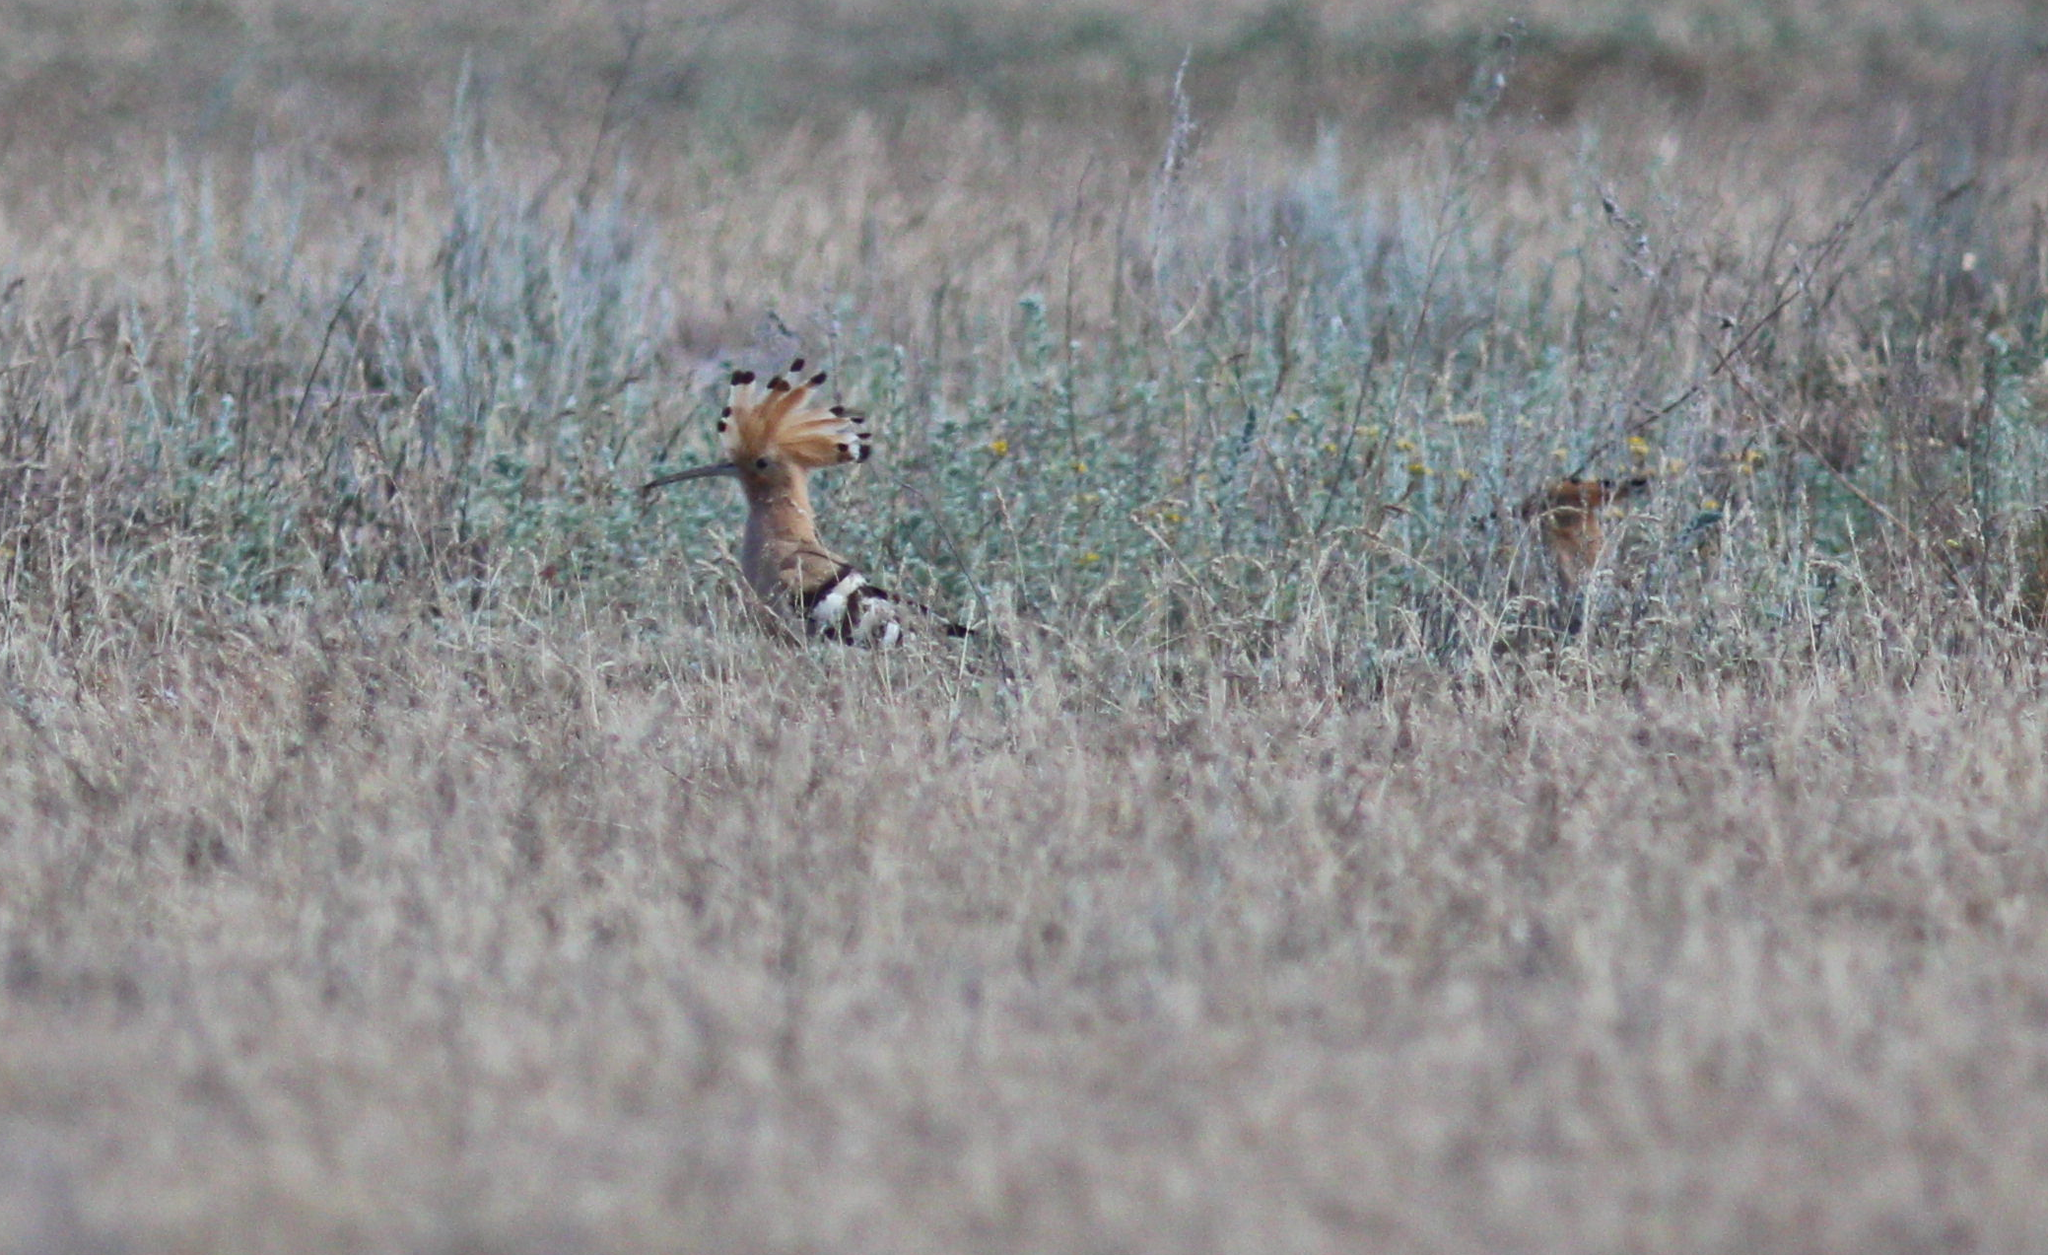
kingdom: Animalia
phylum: Chordata
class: Aves
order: Bucerotiformes
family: Upupidae
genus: Upupa
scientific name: Upupa epops
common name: Eurasian hoopoe
